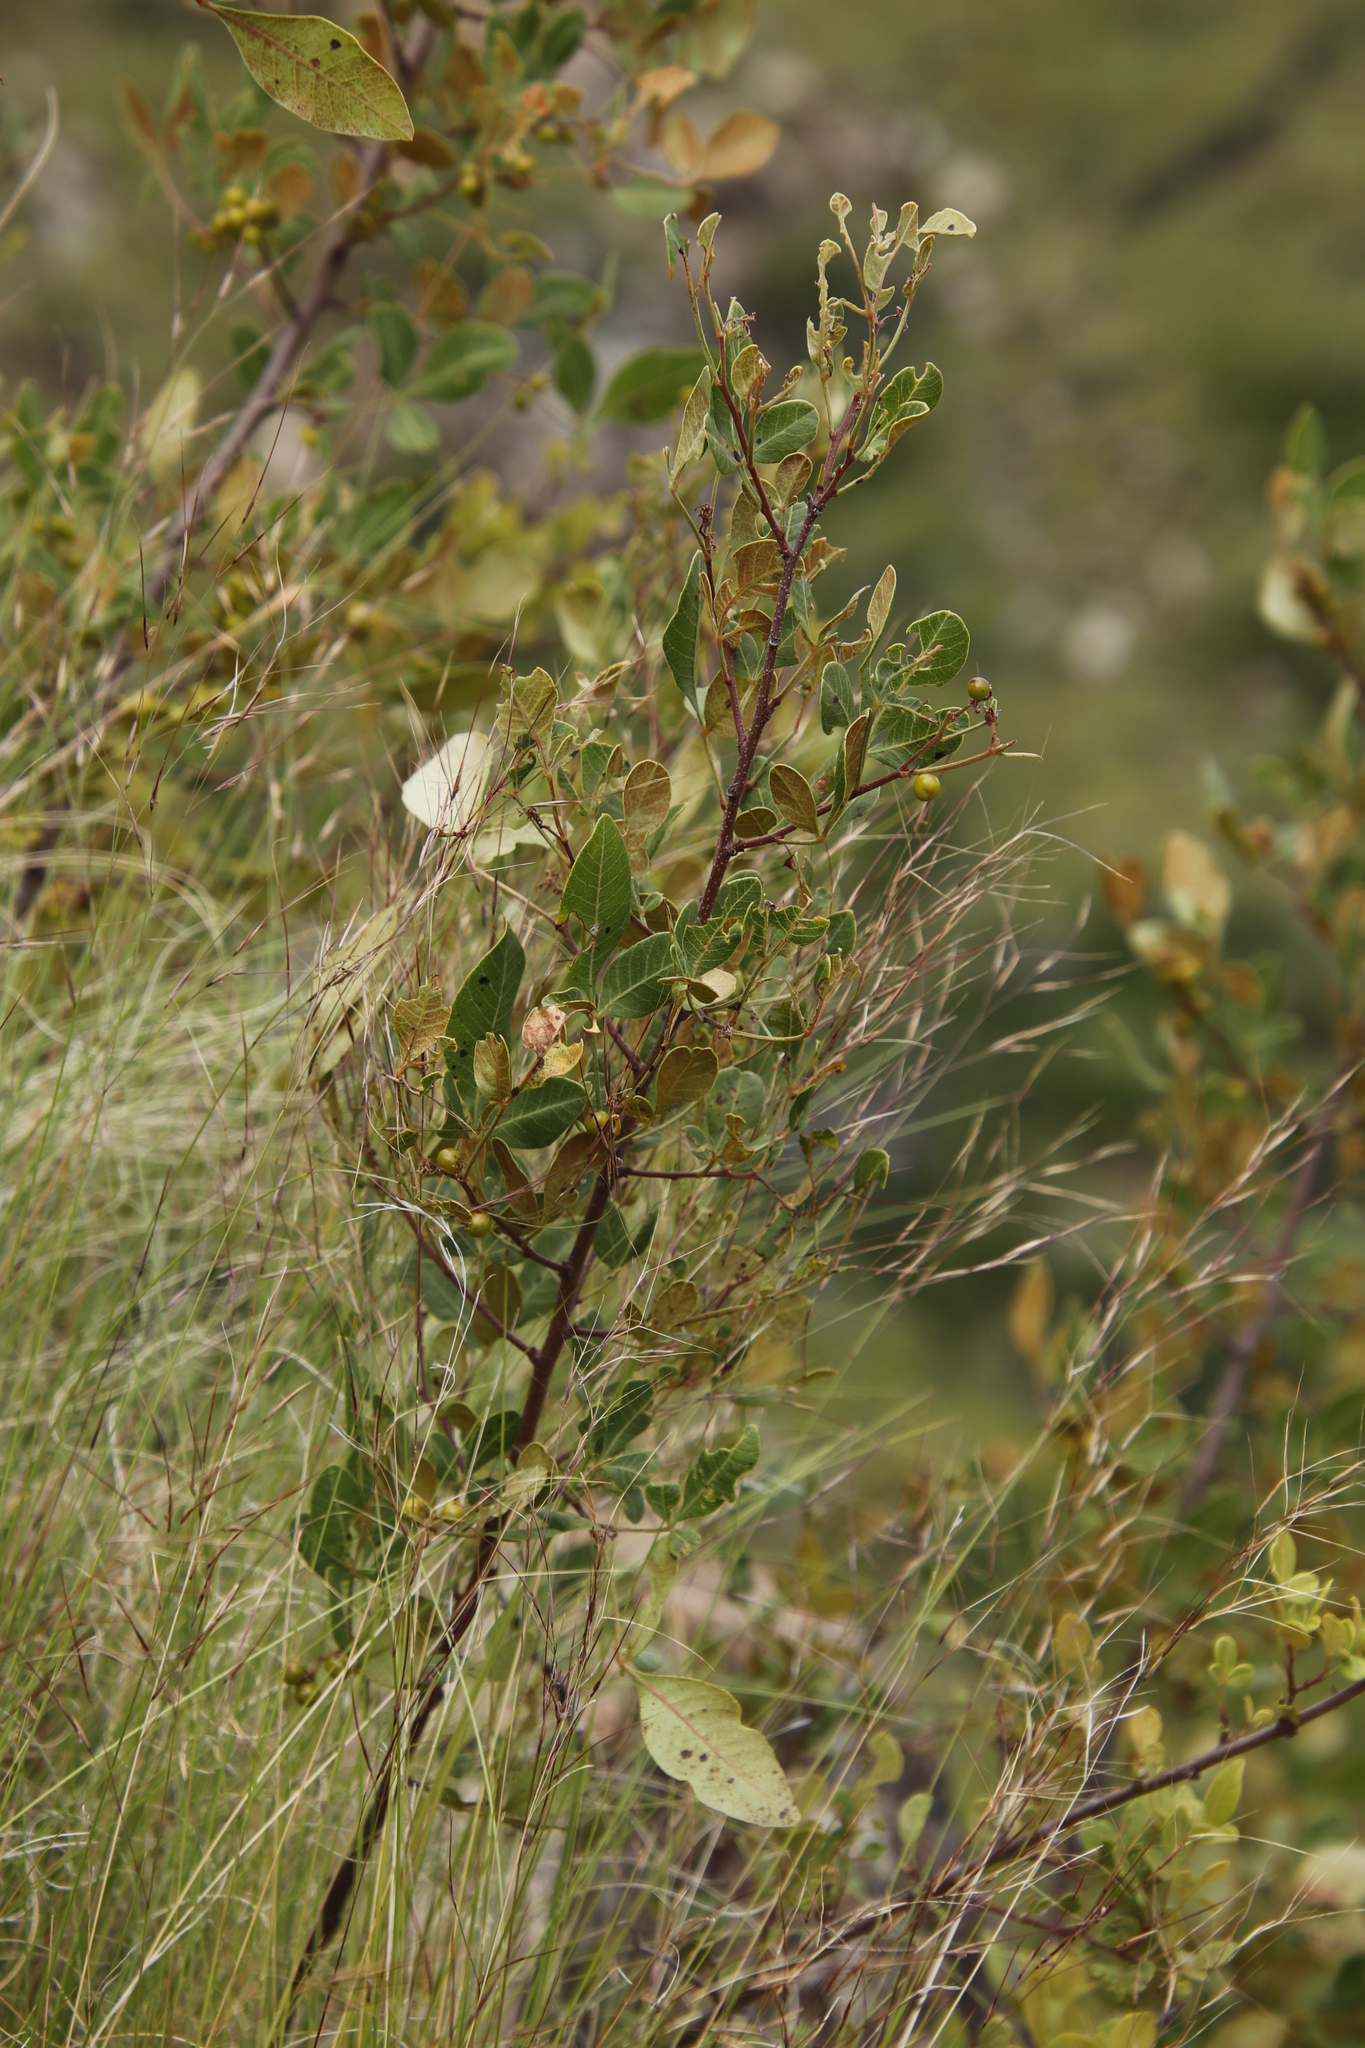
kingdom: Plantae
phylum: Tracheophyta
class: Magnoliopsida
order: Sapindales
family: Anacardiaceae
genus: Searsia
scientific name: Searsia divaricata
